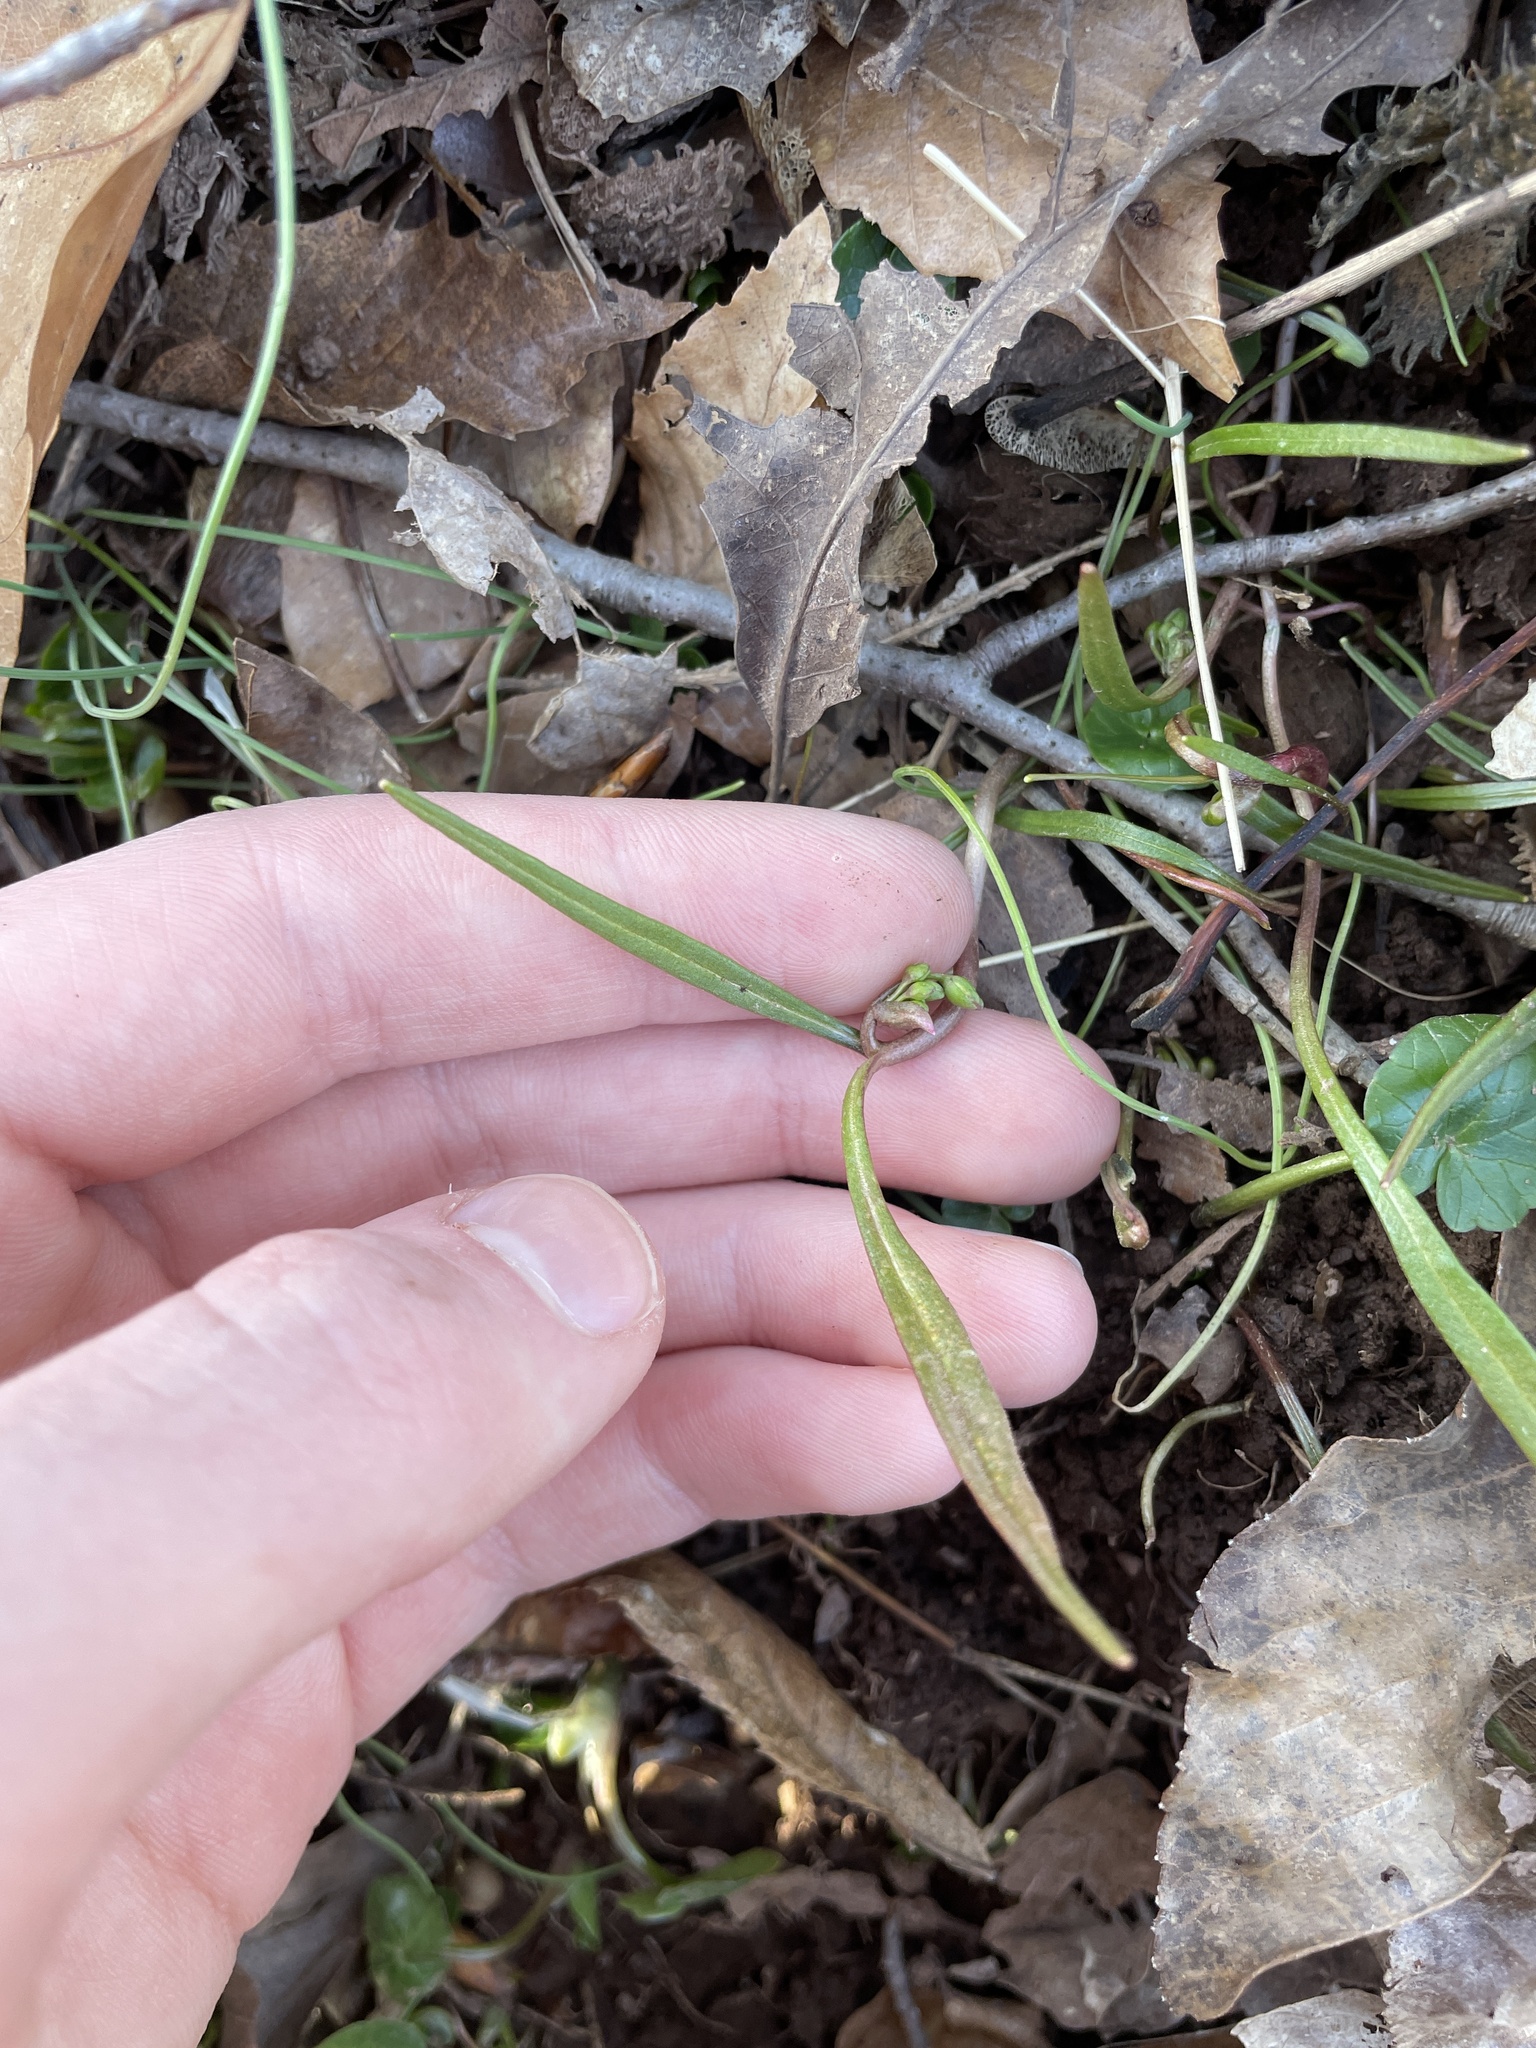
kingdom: Plantae
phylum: Tracheophyta
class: Magnoliopsida
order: Caryophyllales
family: Montiaceae
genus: Claytonia
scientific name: Claytonia virginica
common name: Virginia springbeauty
